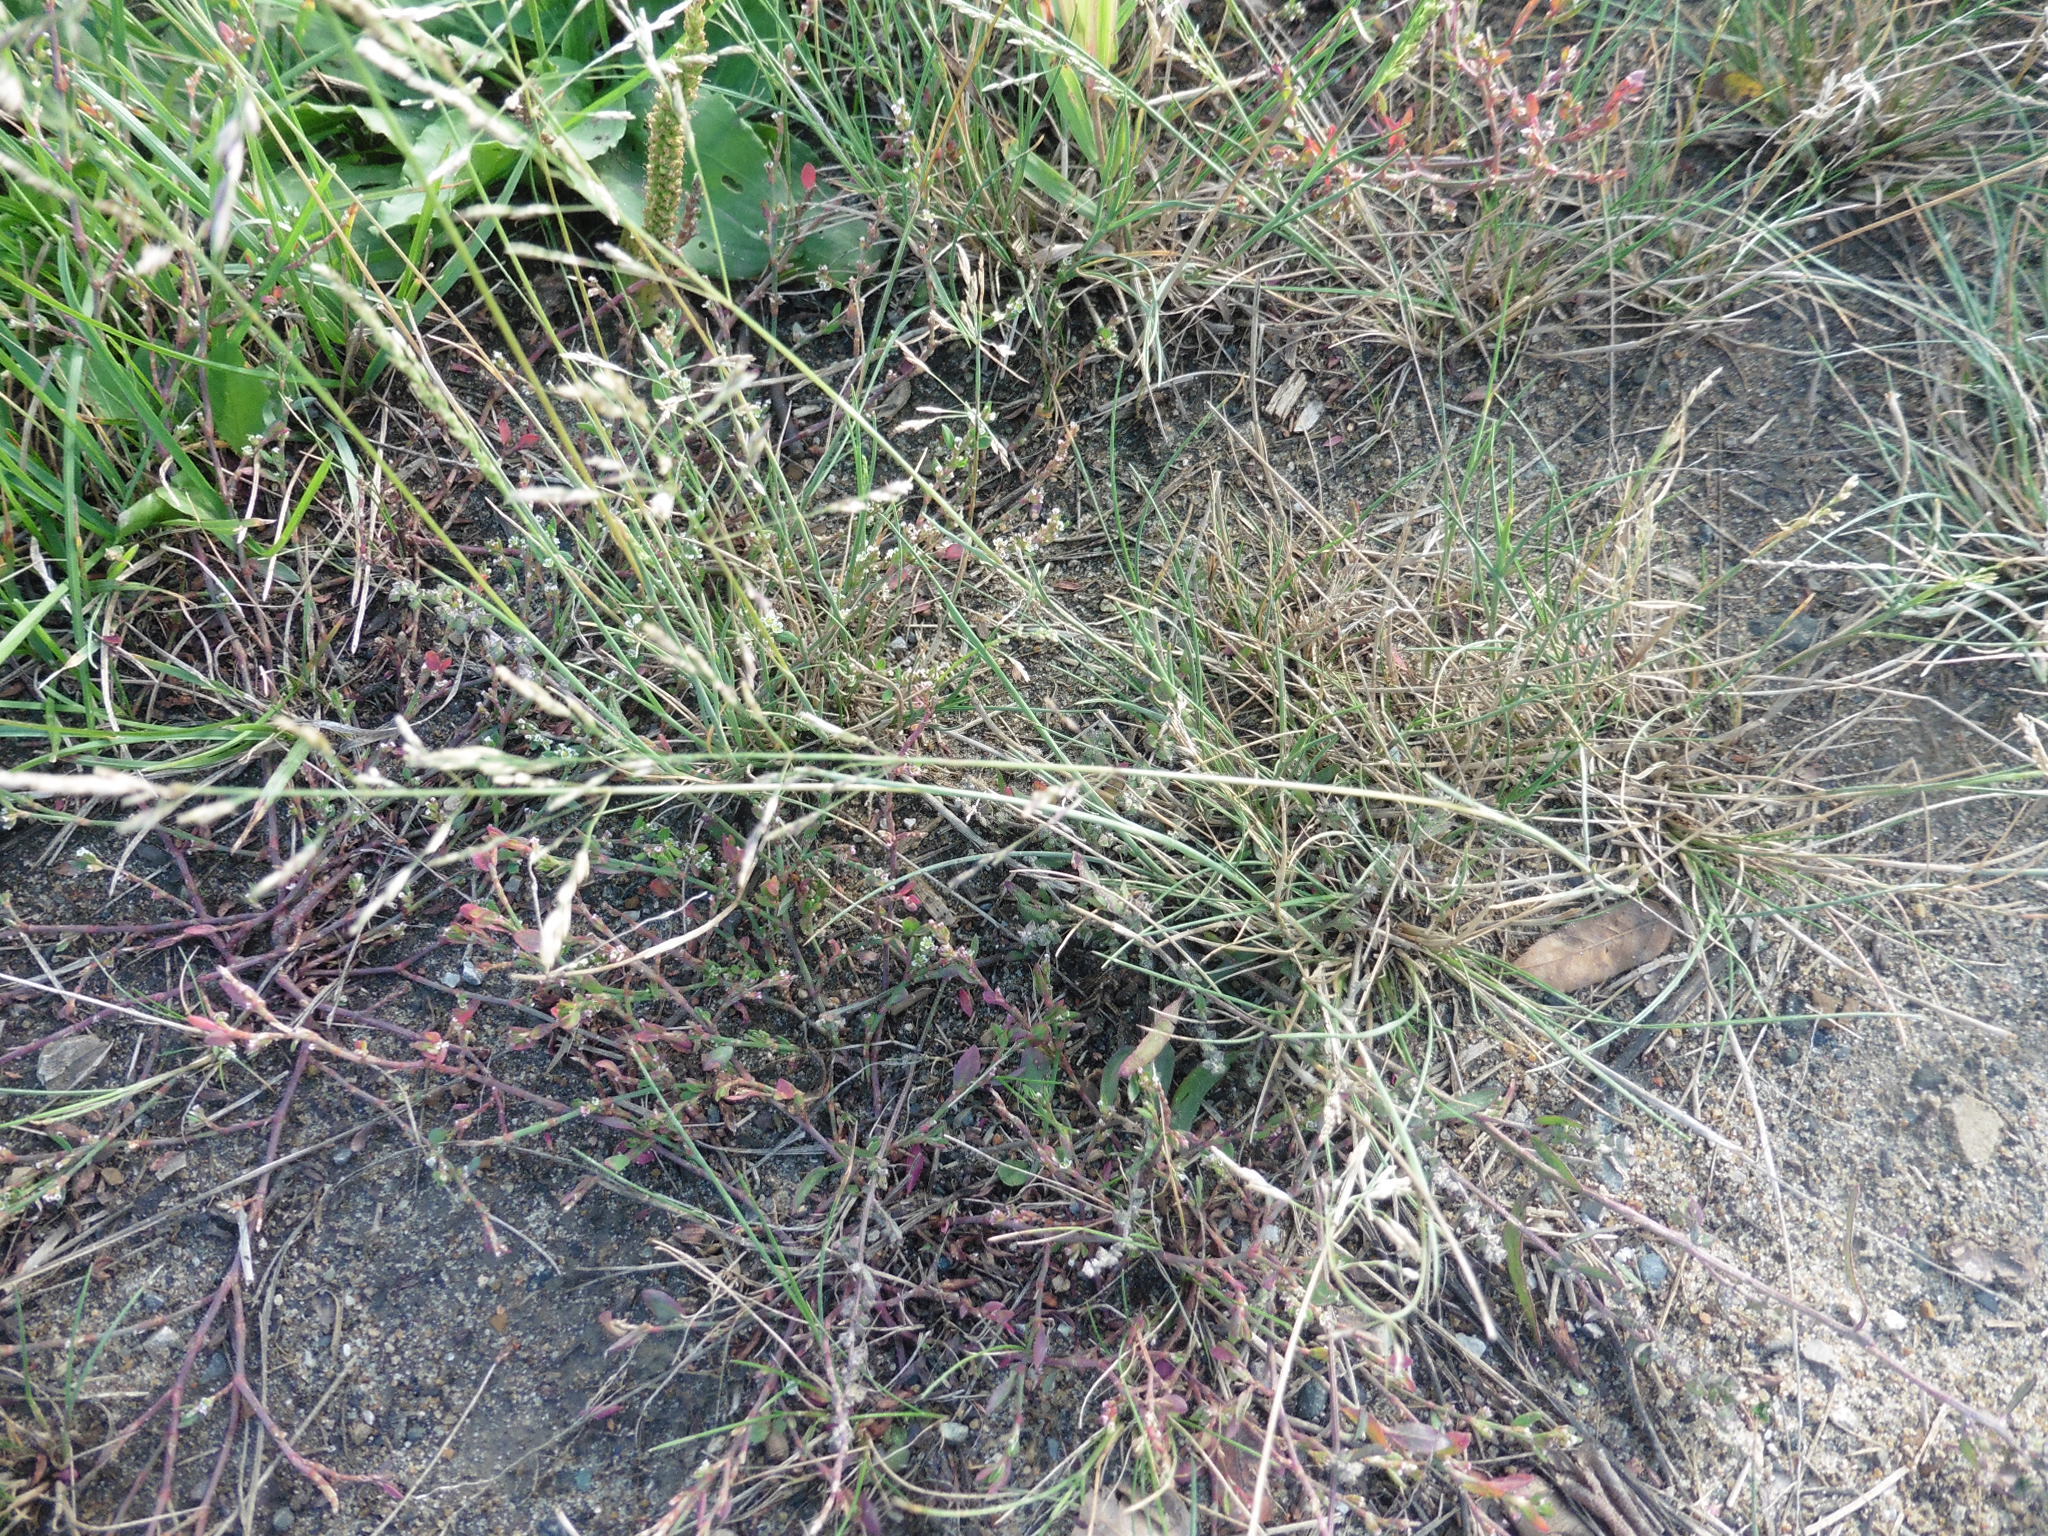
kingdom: Plantae
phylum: Tracheophyta
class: Liliopsida
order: Poales
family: Poaceae
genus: Puccinellia
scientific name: Puccinellia distans
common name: Weeping alkaligrass
